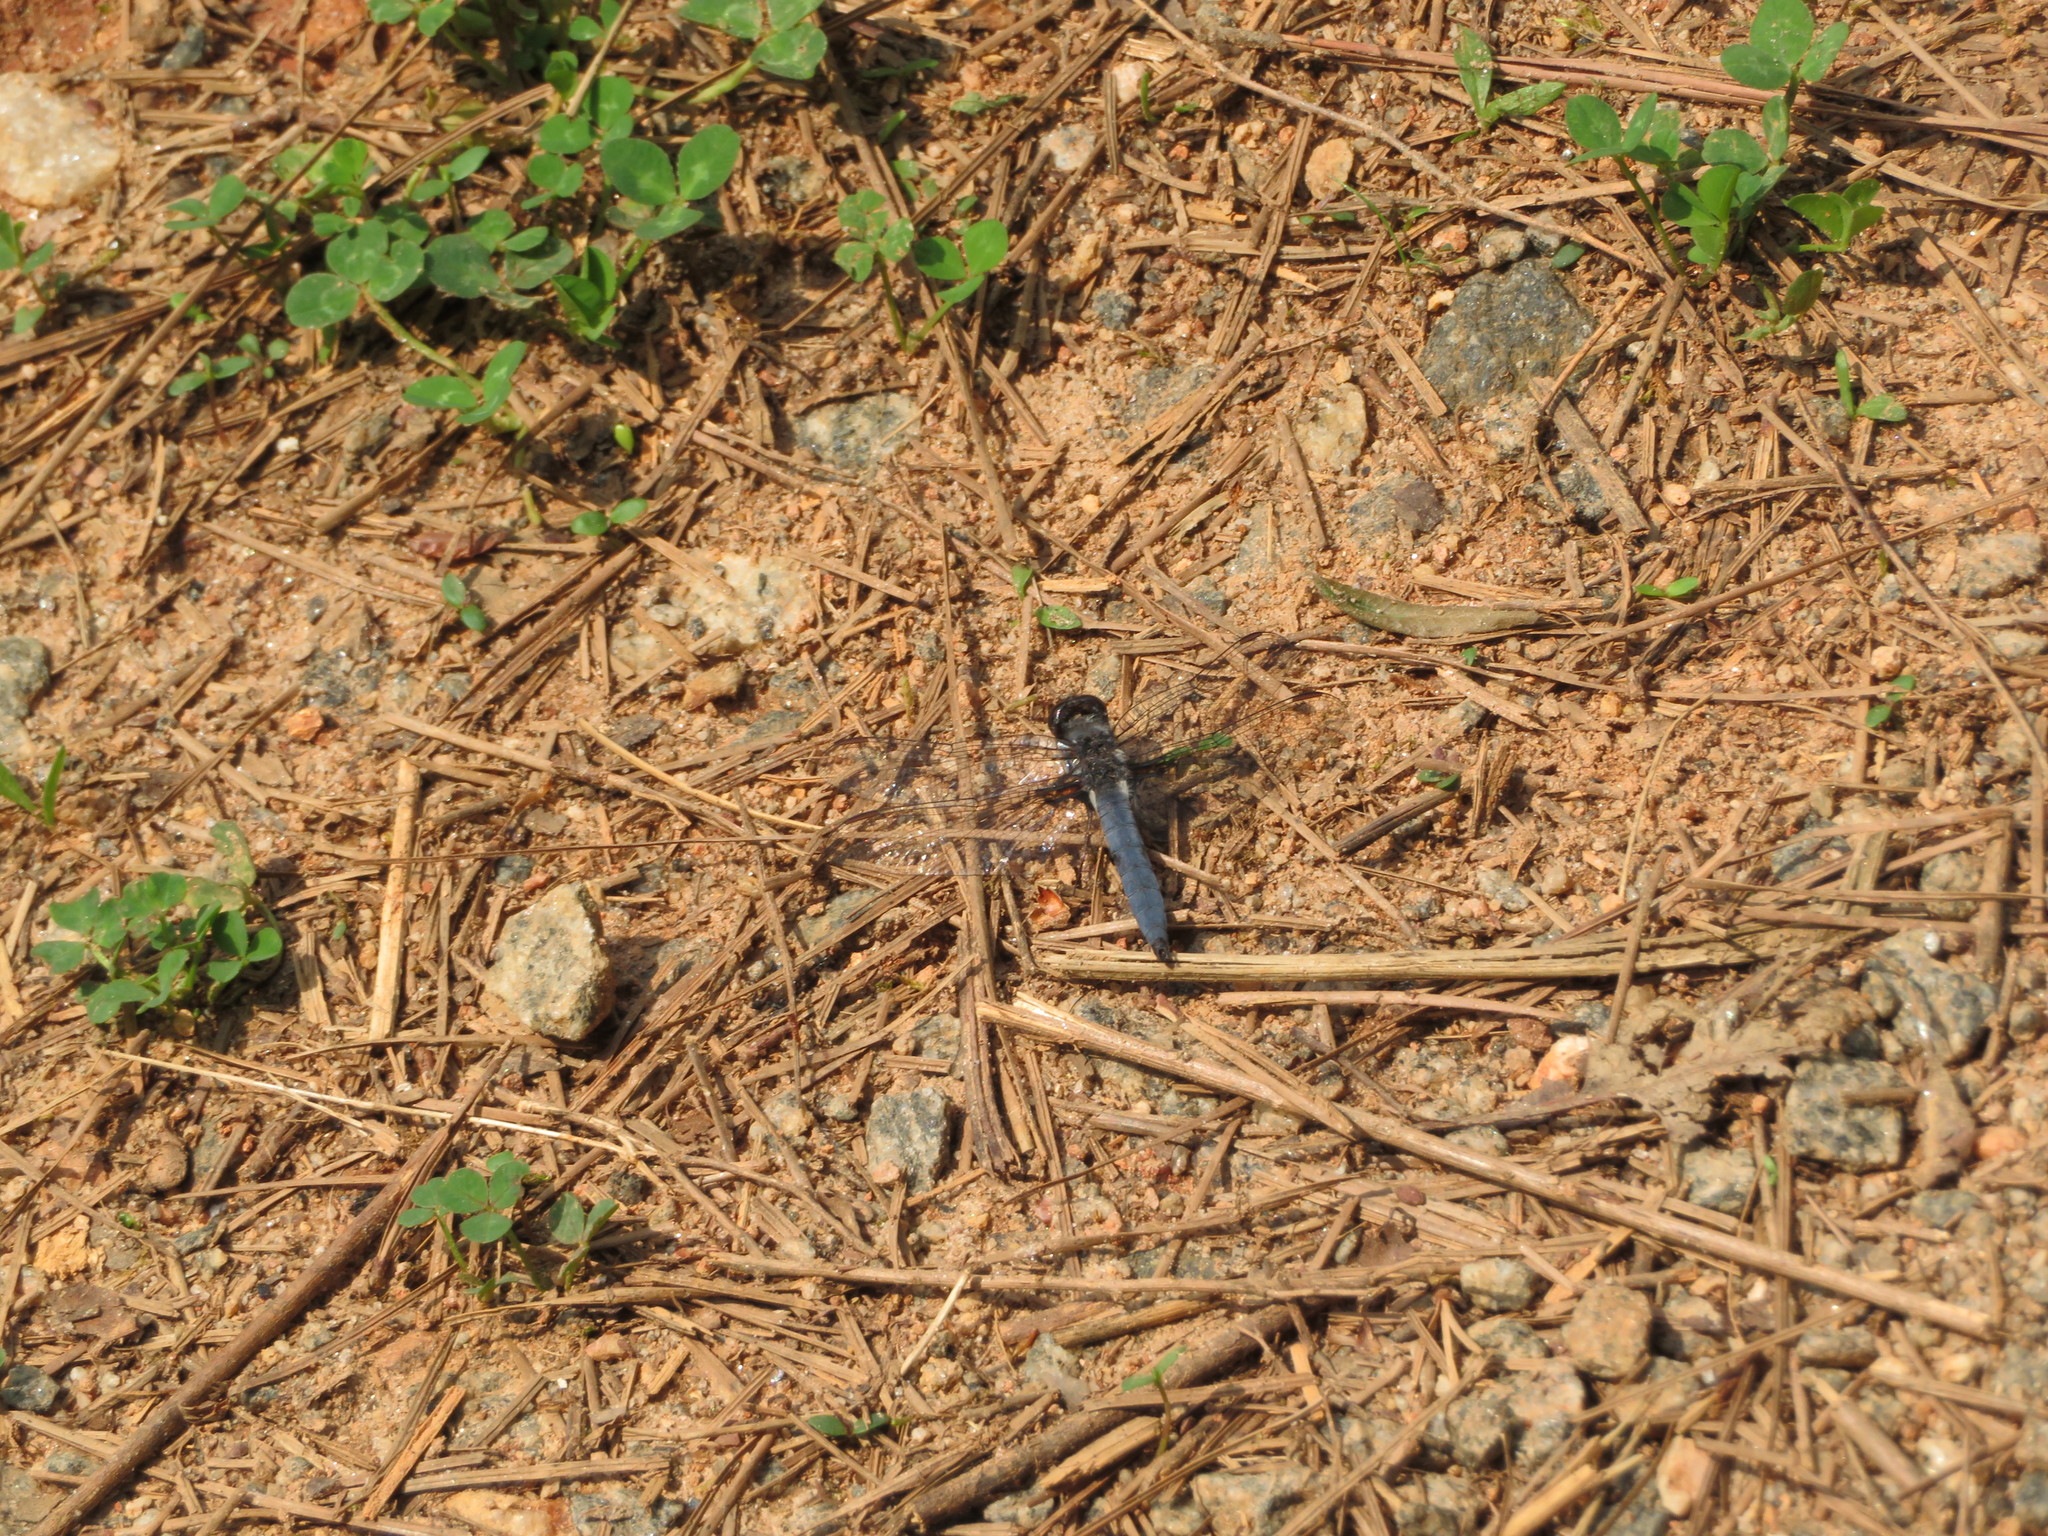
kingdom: Animalia
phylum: Arthropoda
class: Insecta
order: Odonata
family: Libellulidae
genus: Ladona
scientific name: Ladona deplanata
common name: Blue corporal
